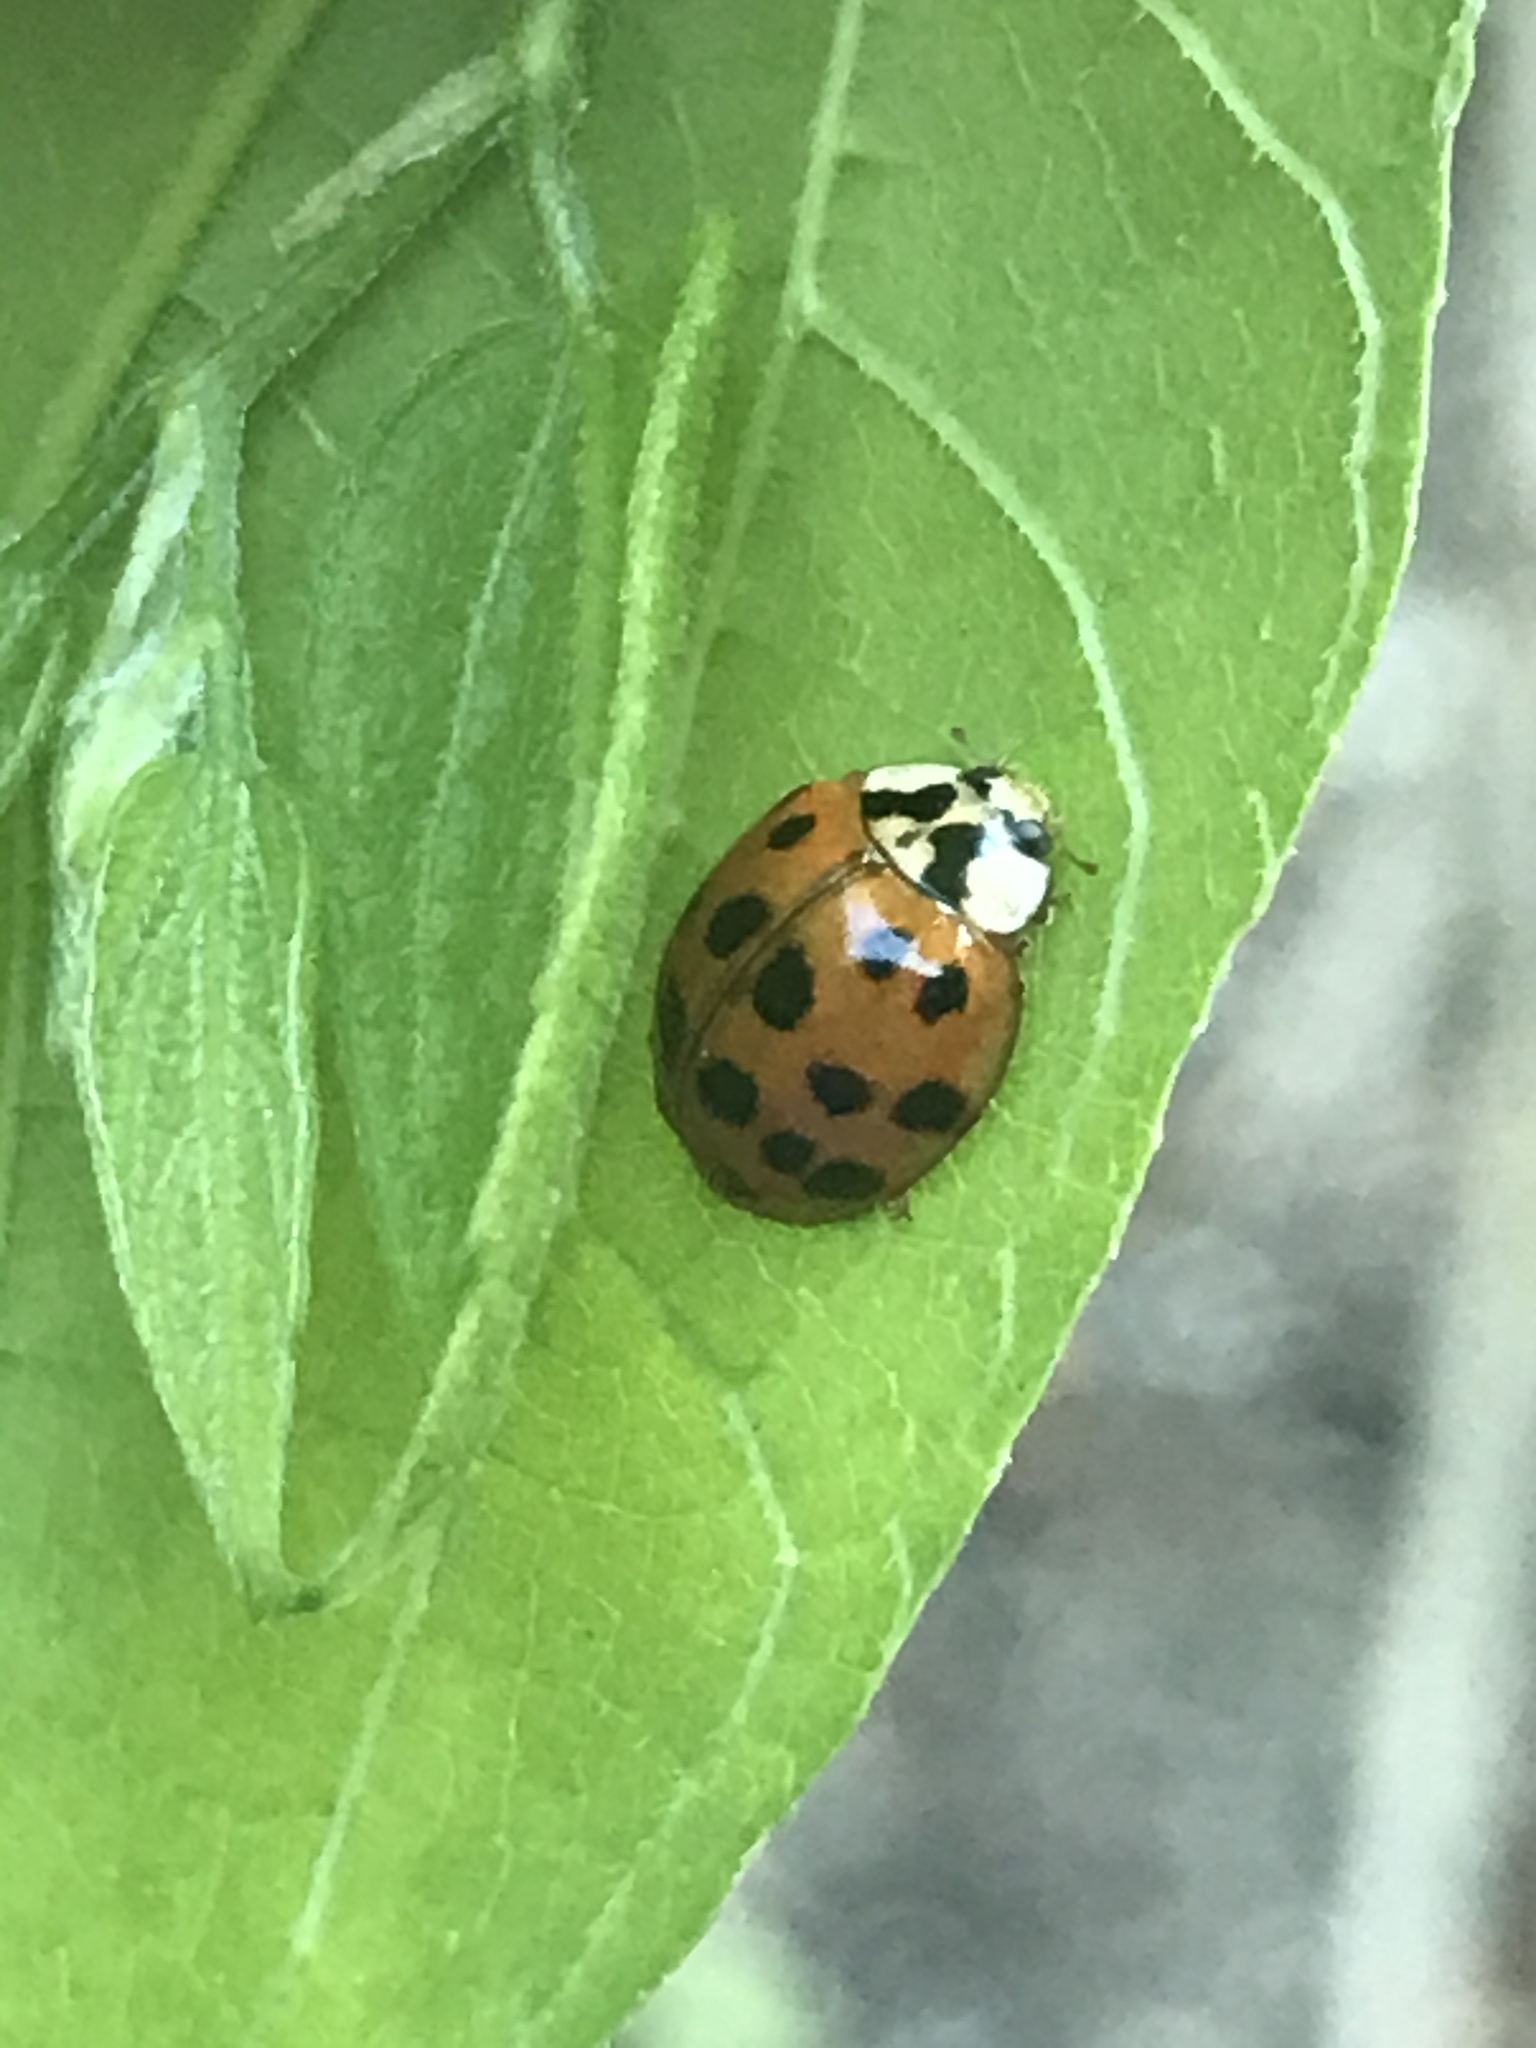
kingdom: Animalia
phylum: Arthropoda
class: Insecta
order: Coleoptera
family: Coccinellidae
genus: Harmonia
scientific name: Harmonia axyridis
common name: Harlequin ladybird
